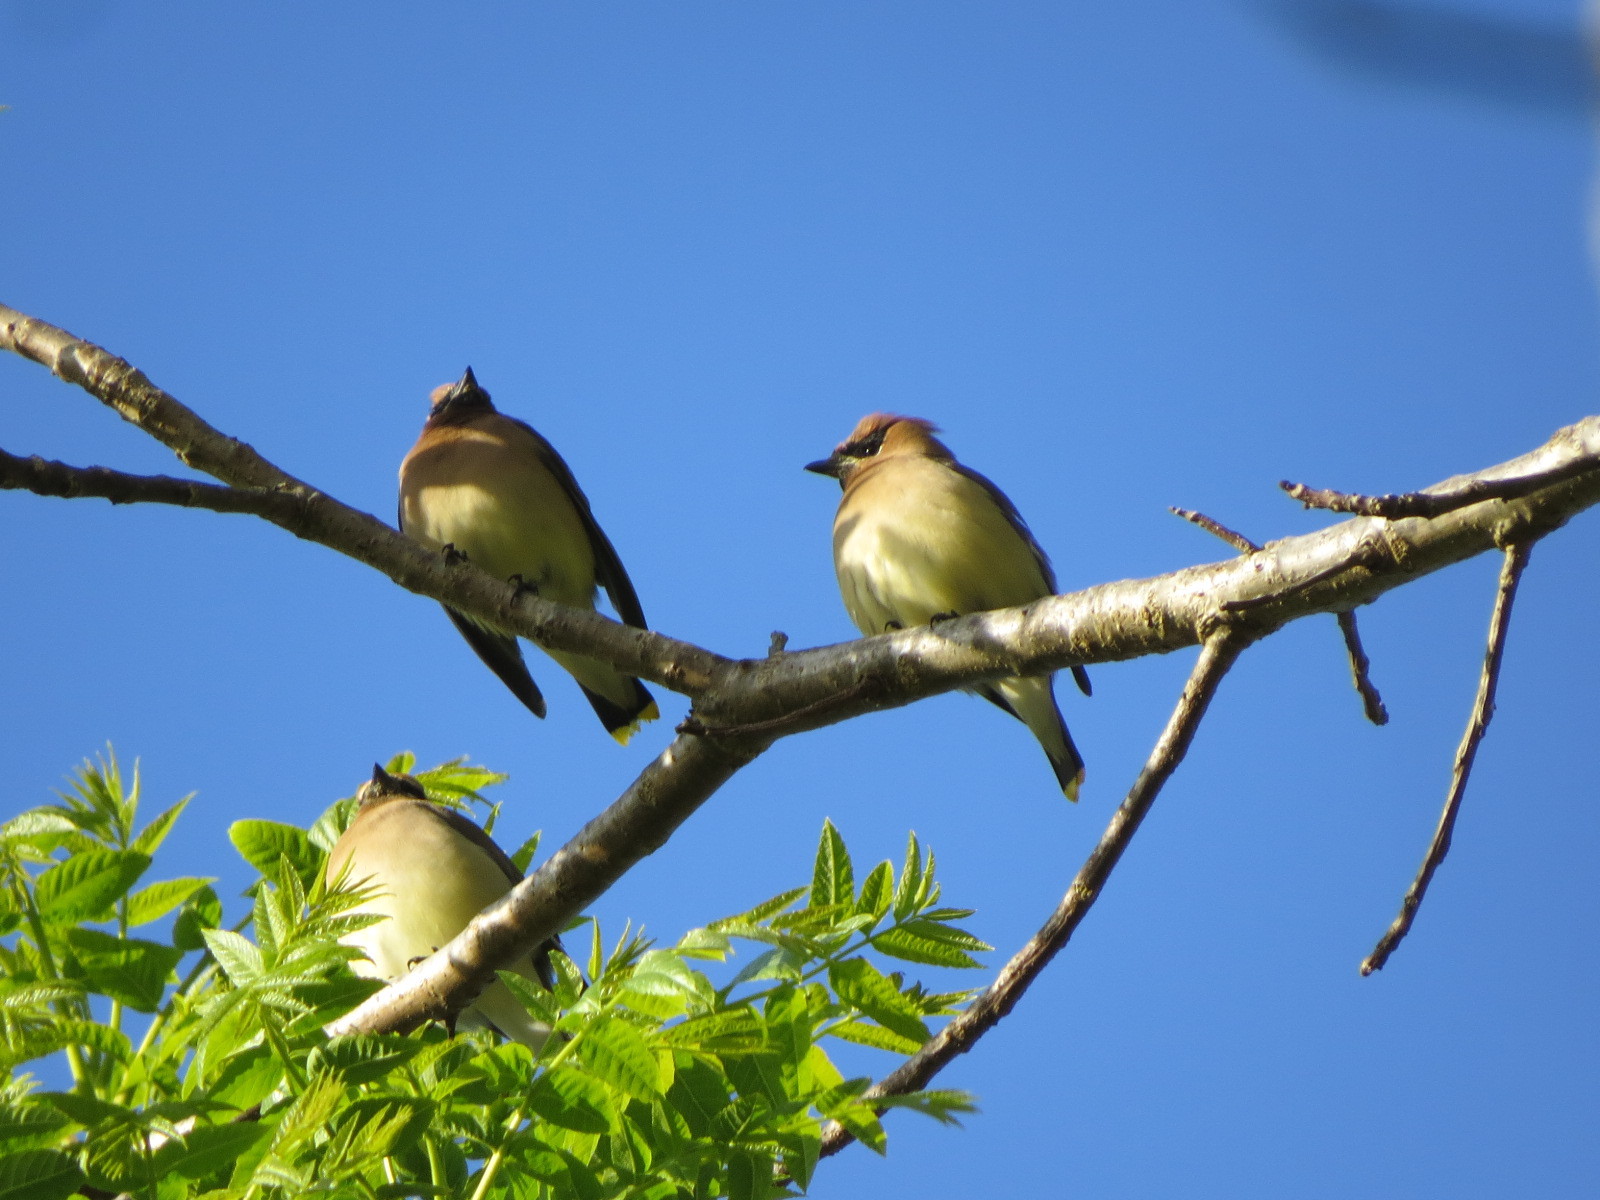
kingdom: Animalia
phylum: Chordata
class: Aves
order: Passeriformes
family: Bombycillidae
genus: Bombycilla
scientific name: Bombycilla cedrorum
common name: Cedar waxwing
